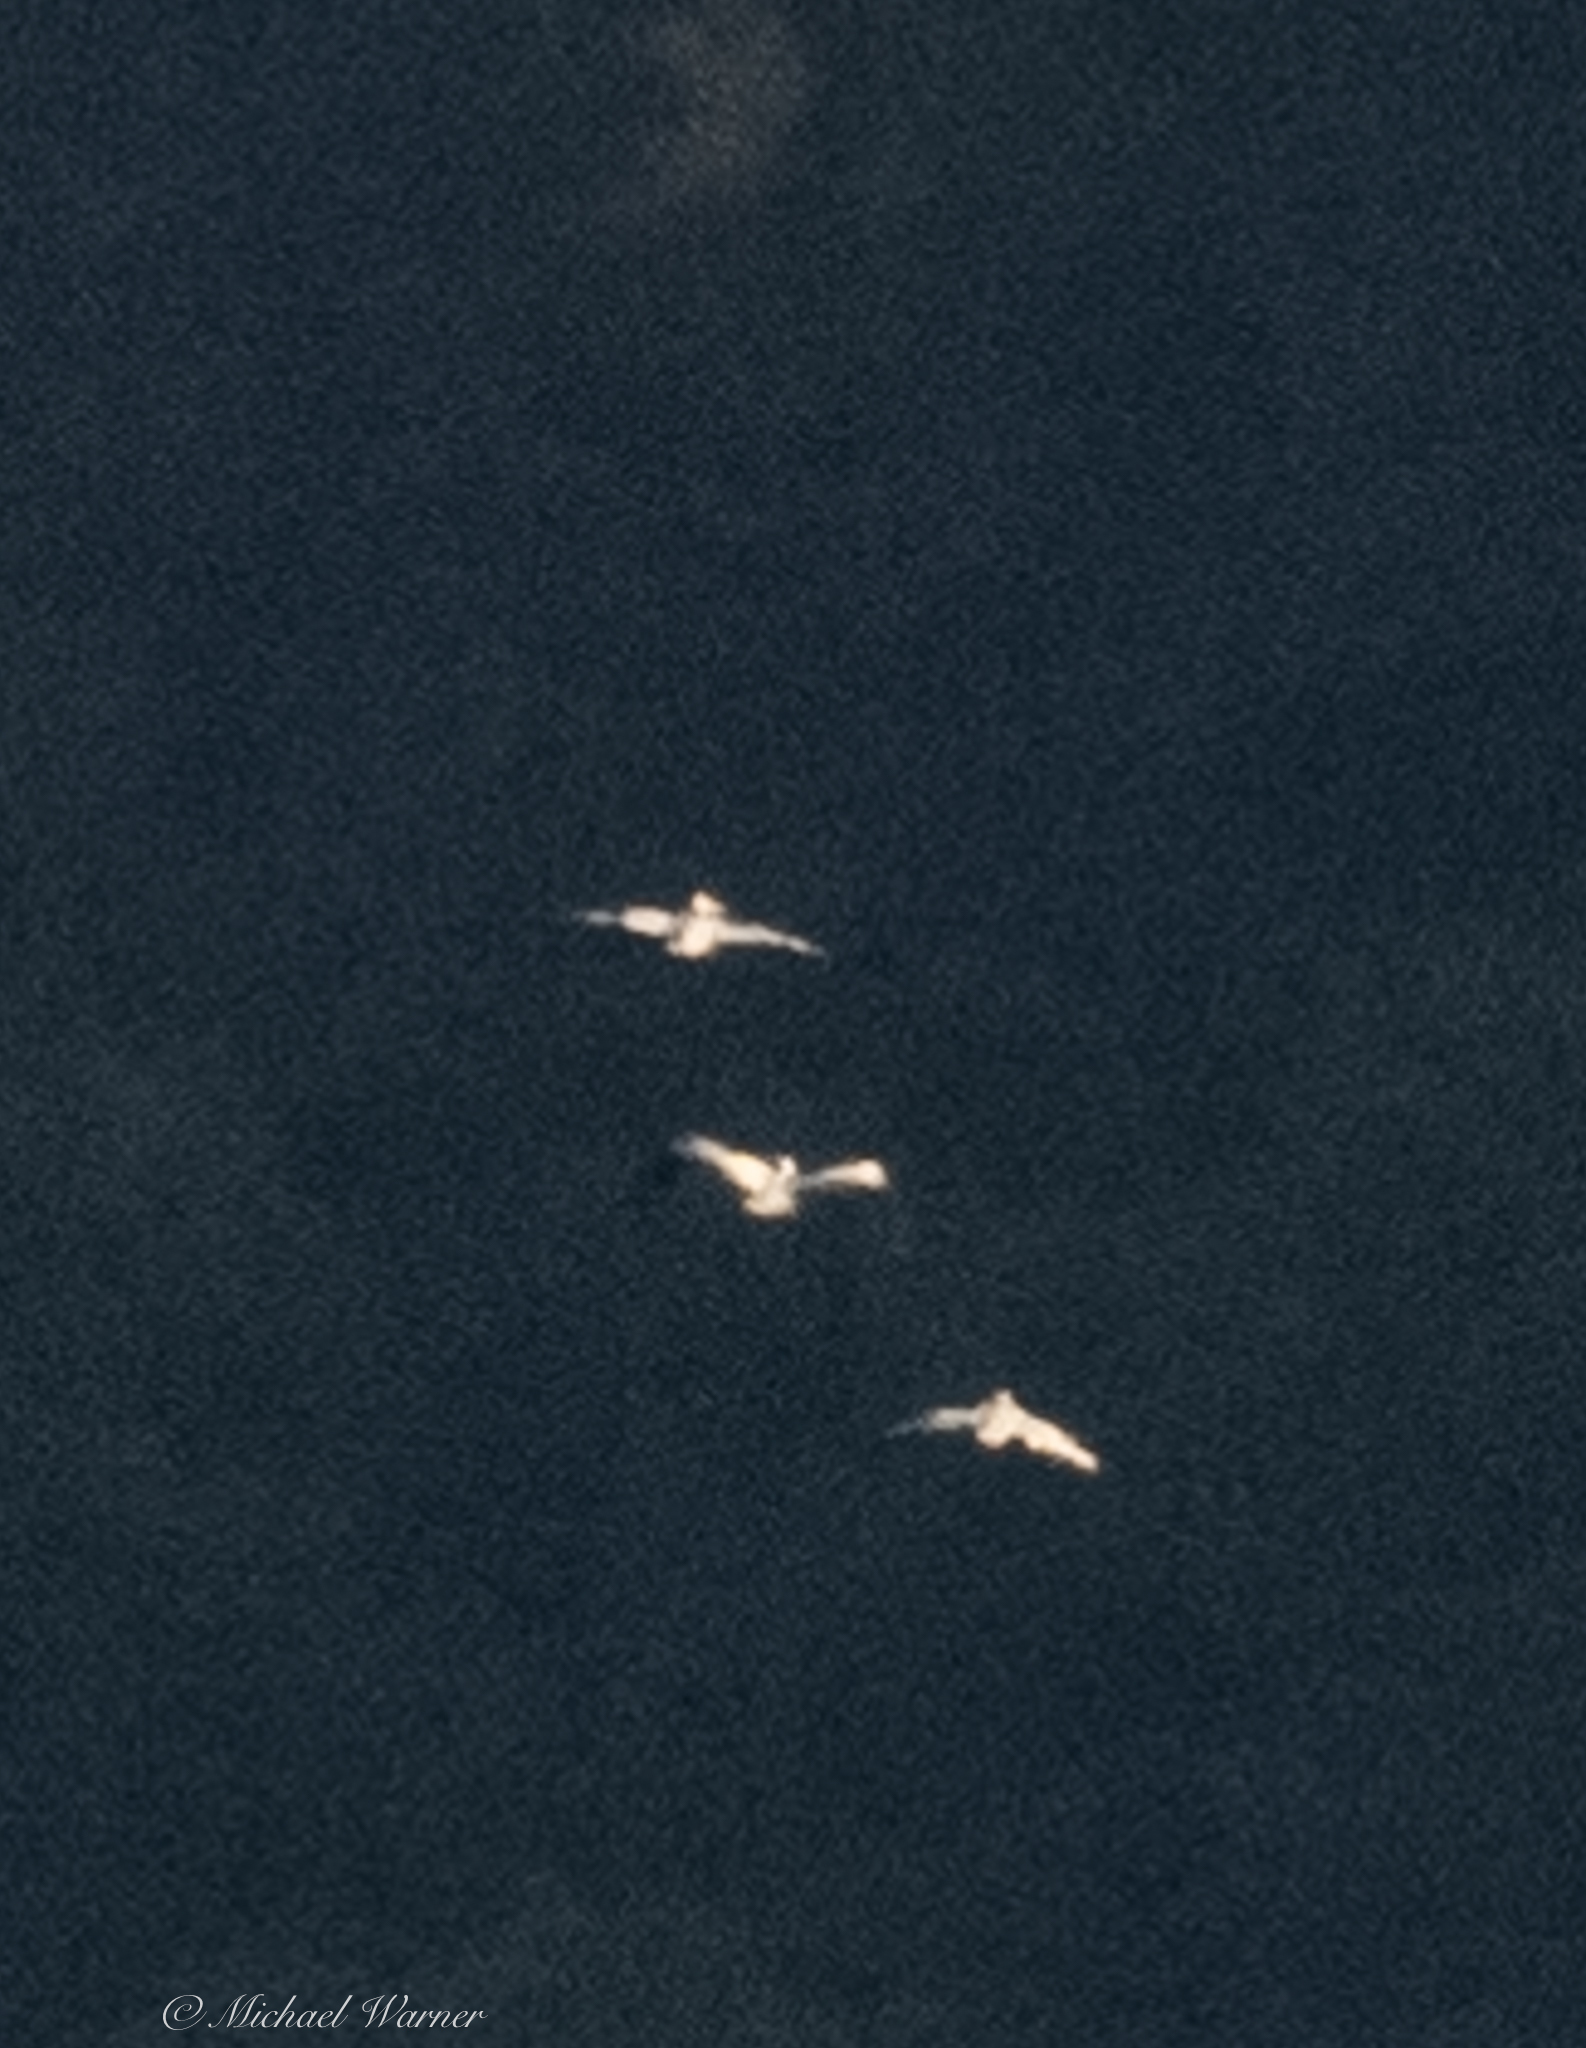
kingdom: Animalia
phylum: Chordata
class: Aves
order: Pelecaniformes
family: Pelecanidae
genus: Pelecanus
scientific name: Pelecanus erythrorhynchos
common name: American white pelican
